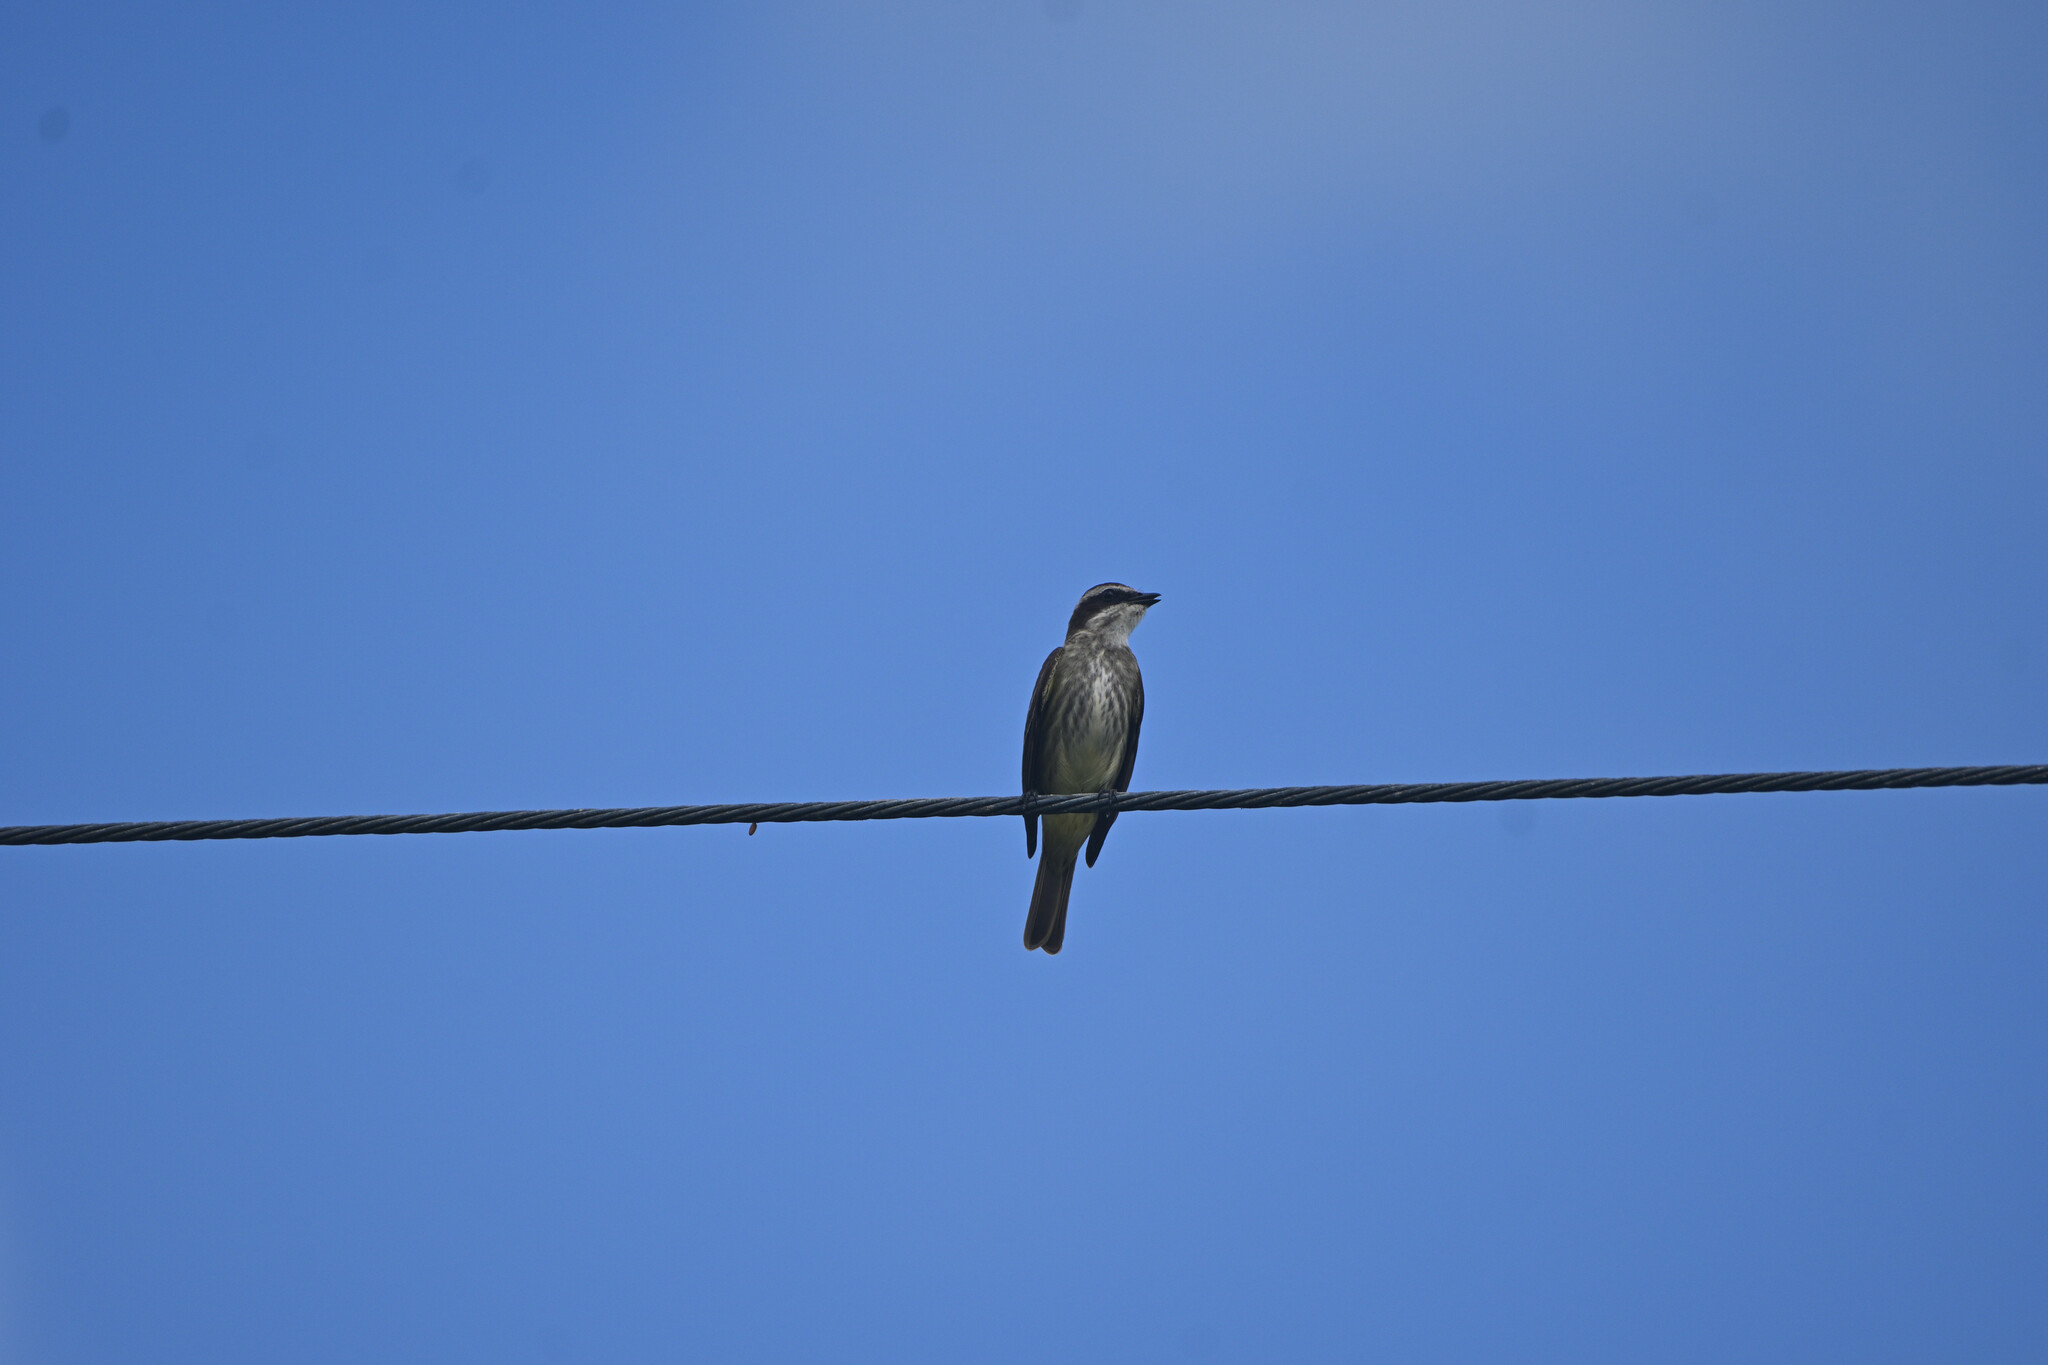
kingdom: Animalia
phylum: Chordata
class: Aves
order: Passeriformes
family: Tyrannidae
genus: Legatus
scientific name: Legatus leucophaius
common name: Piratic flycatcher
